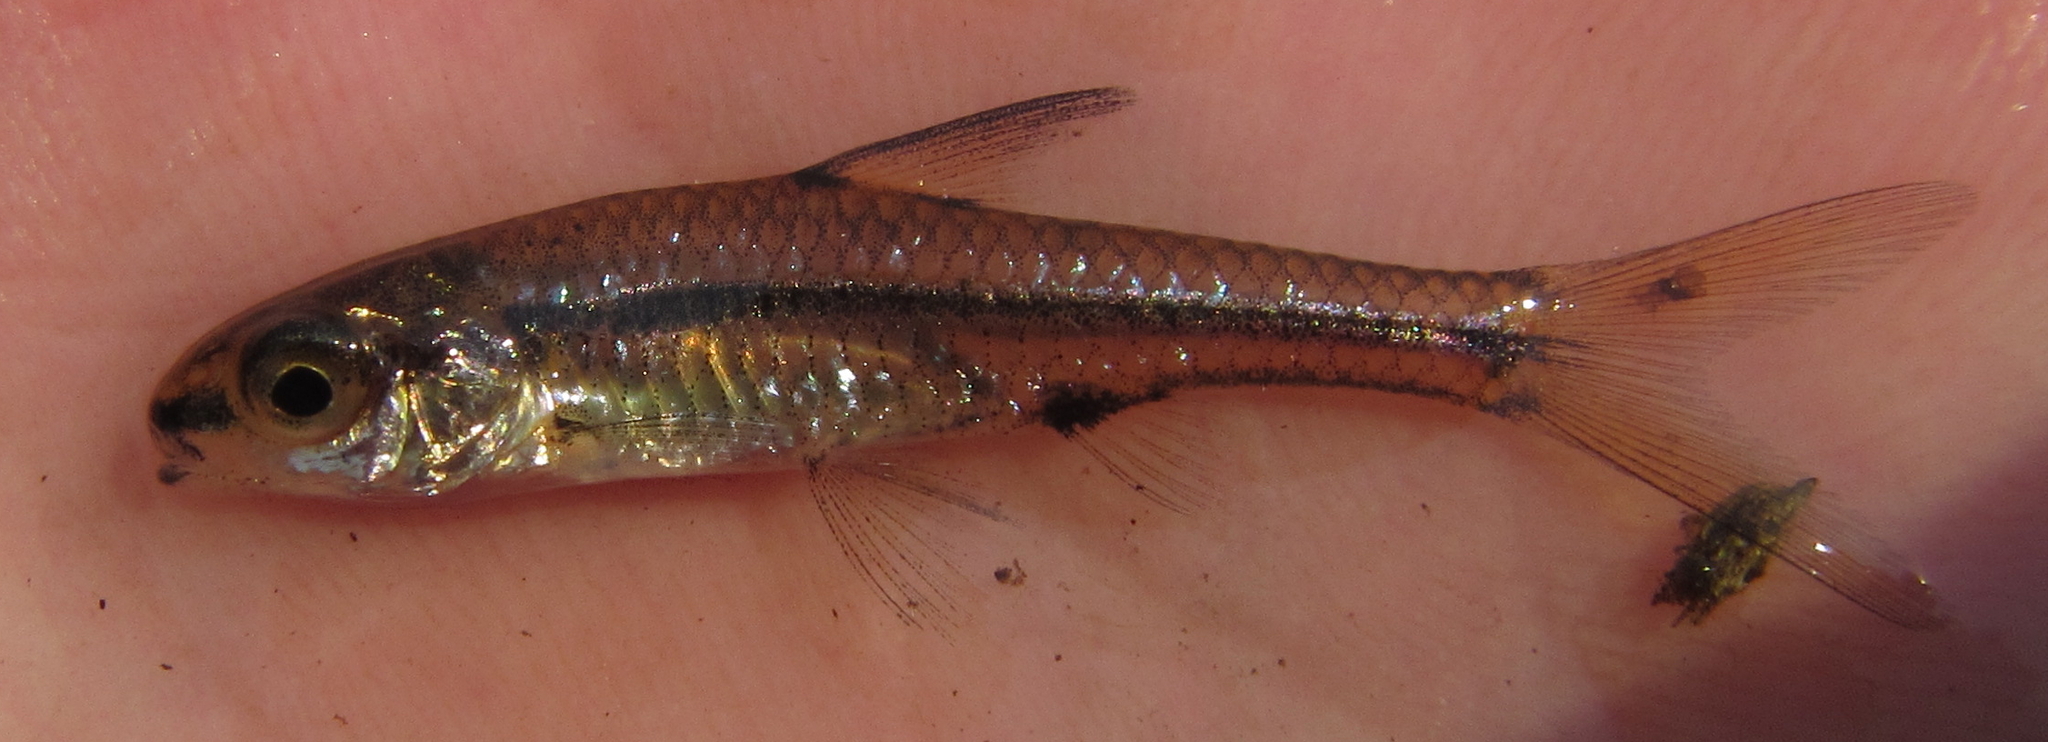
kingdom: Animalia
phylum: Chordata
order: Cypriniformes
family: Cyprinidae
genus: Enteromius
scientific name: Enteromius barnardi
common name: Blackback barb
